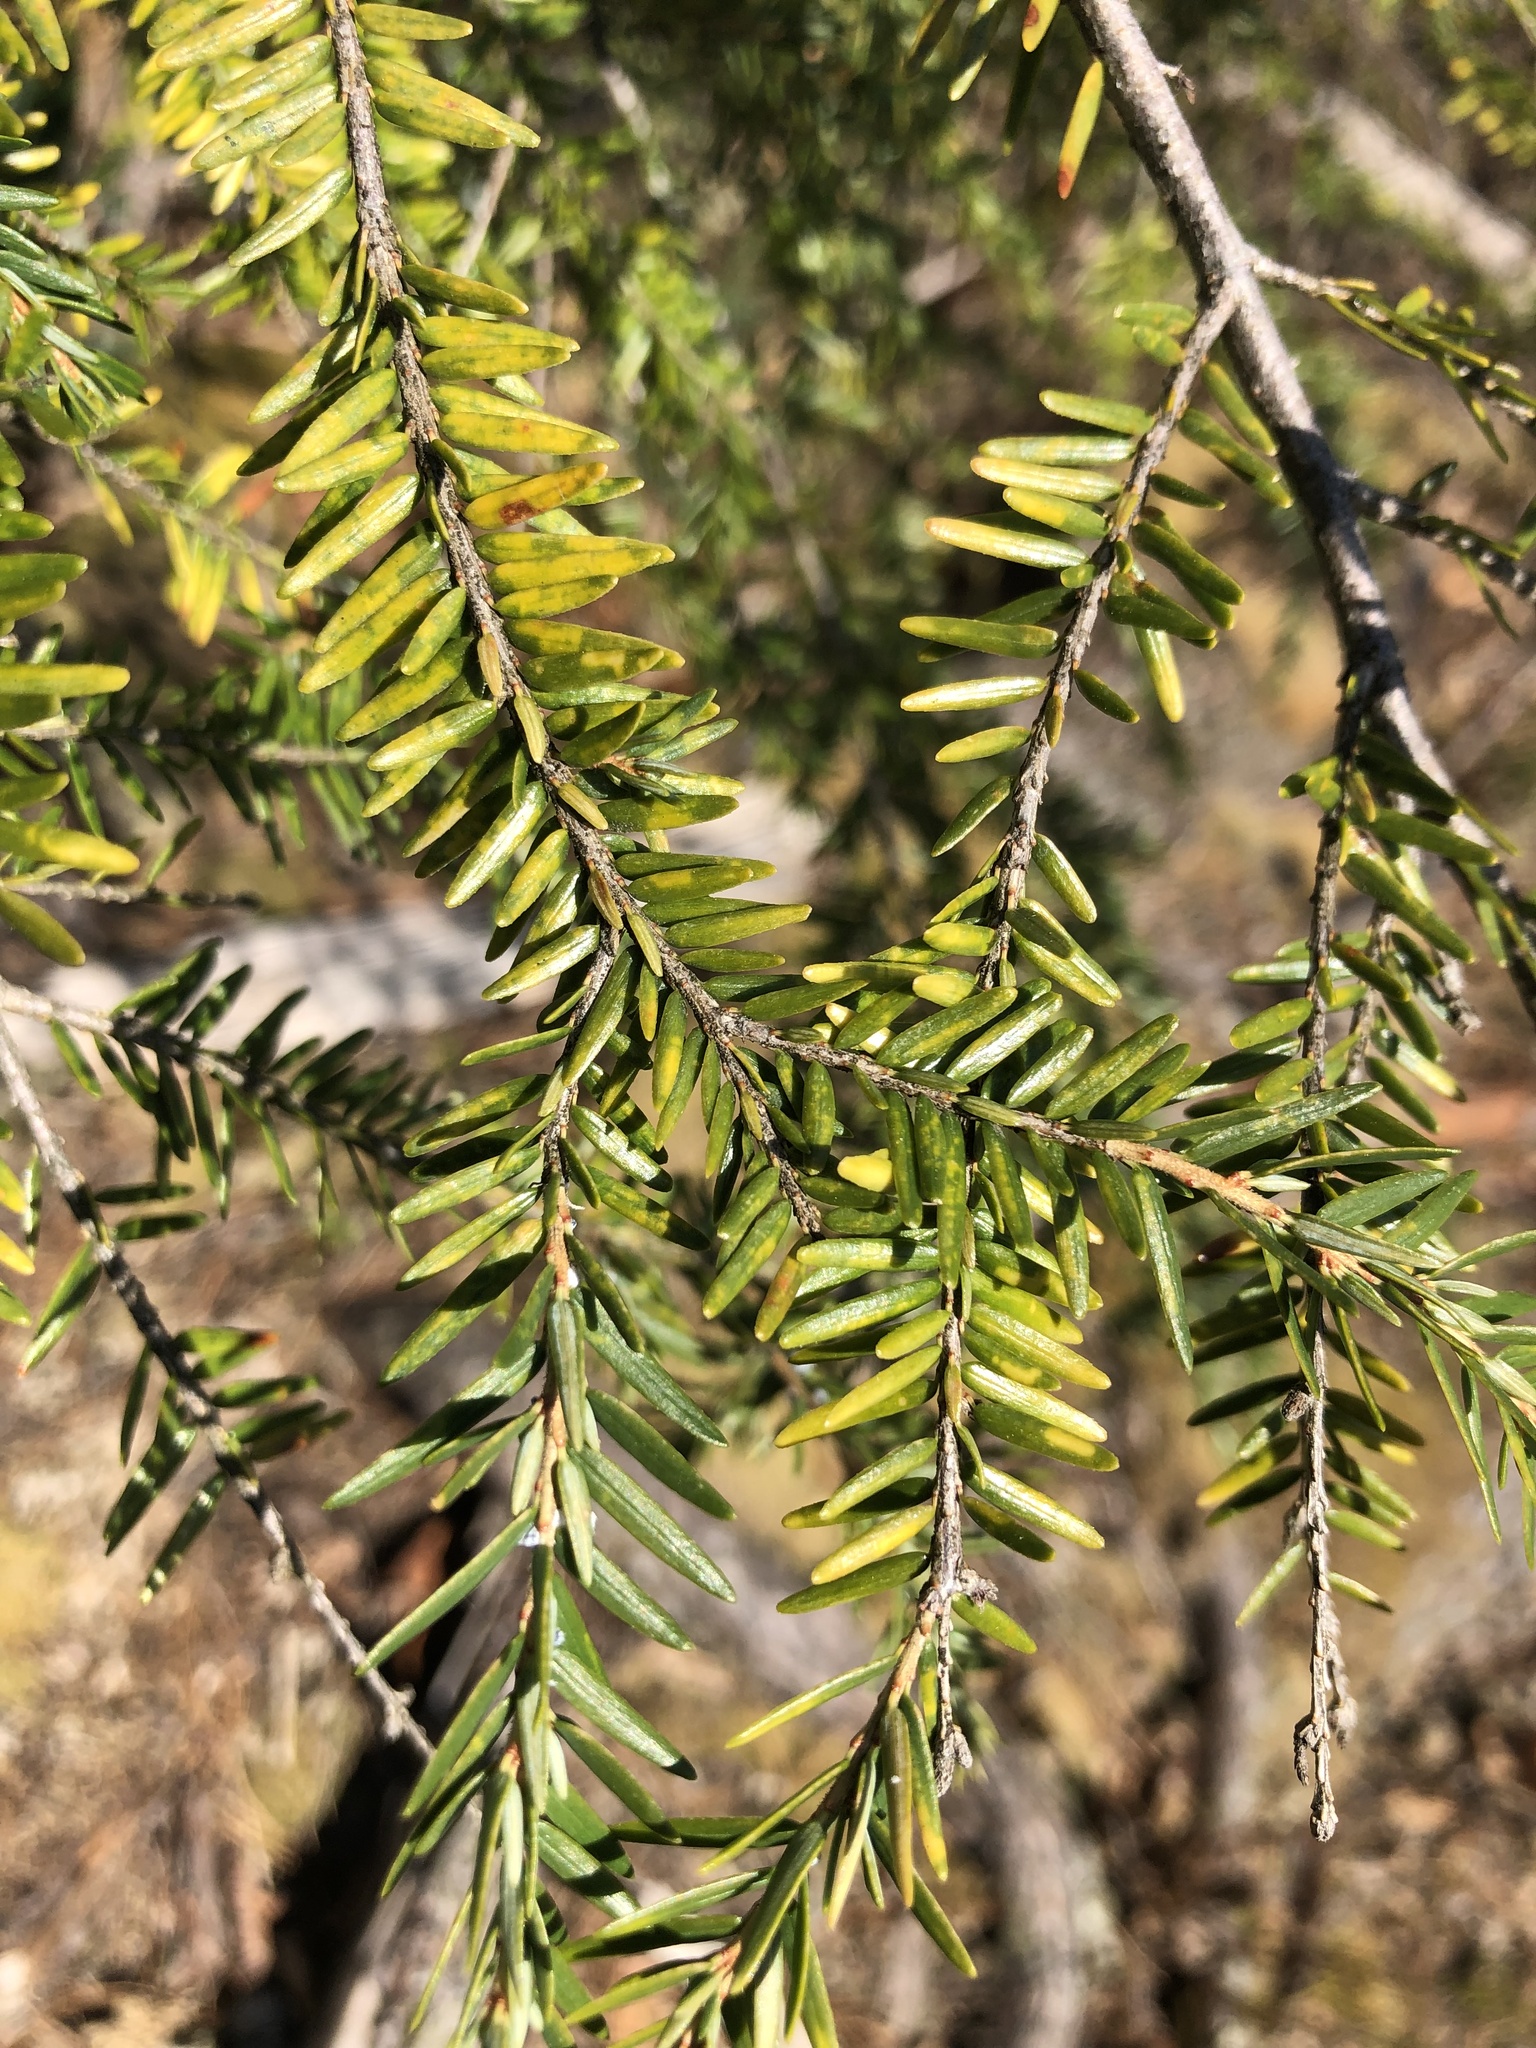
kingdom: Plantae
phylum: Tracheophyta
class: Pinopsida
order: Pinales
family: Pinaceae
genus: Tsuga
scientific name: Tsuga canadensis
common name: Eastern hemlock
